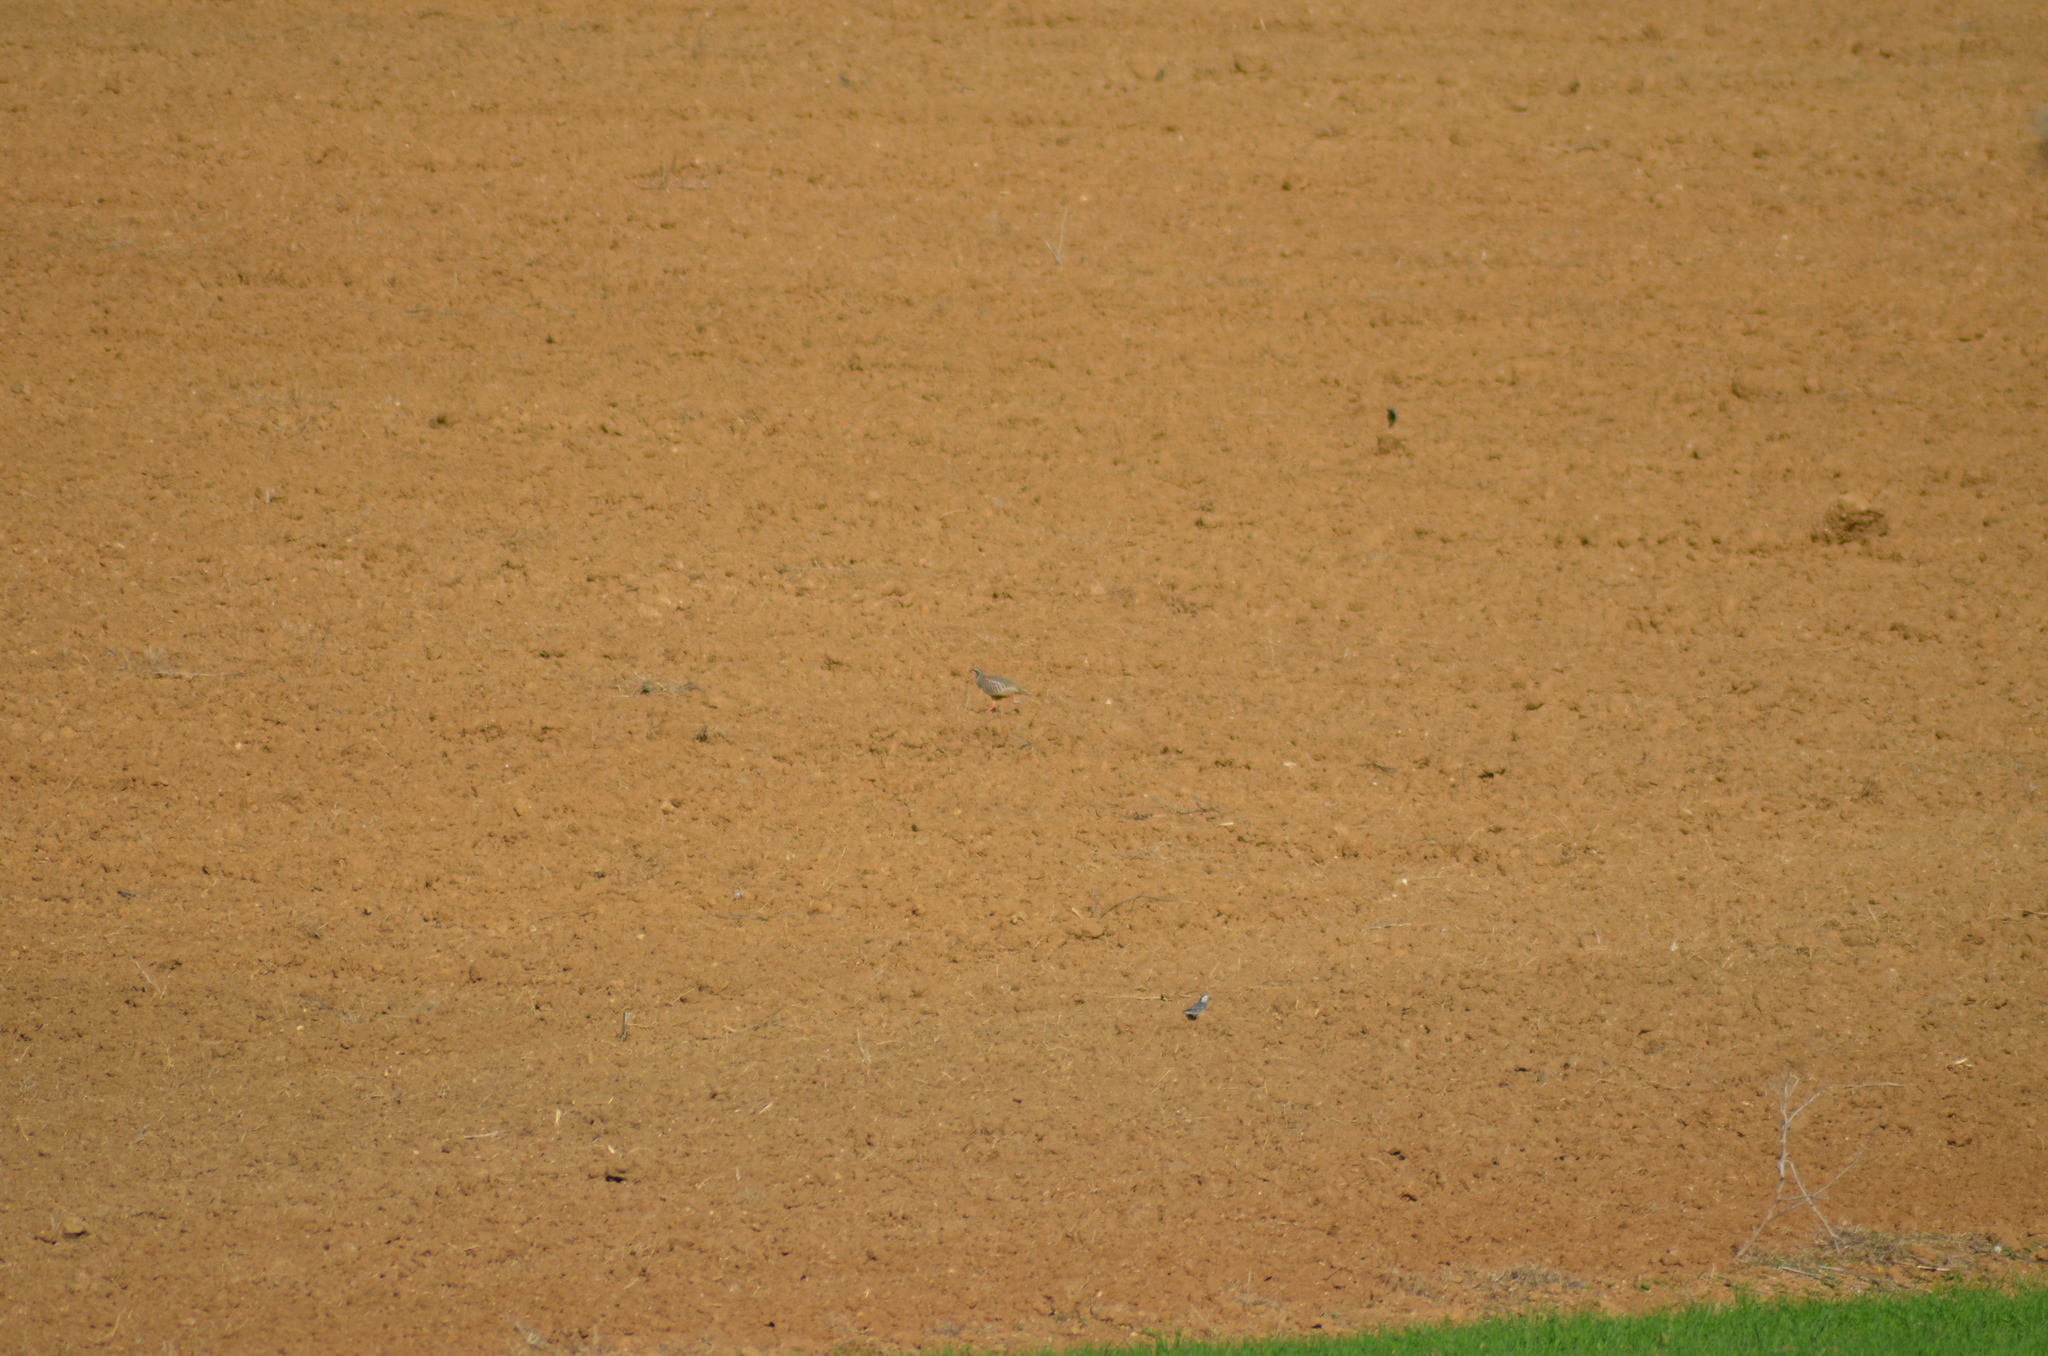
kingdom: Animalia
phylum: Chordata
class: Aves
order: Galliformes
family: Phasianidae
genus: Alectoris
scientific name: Alectoris rufa
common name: Red-legged partridge
